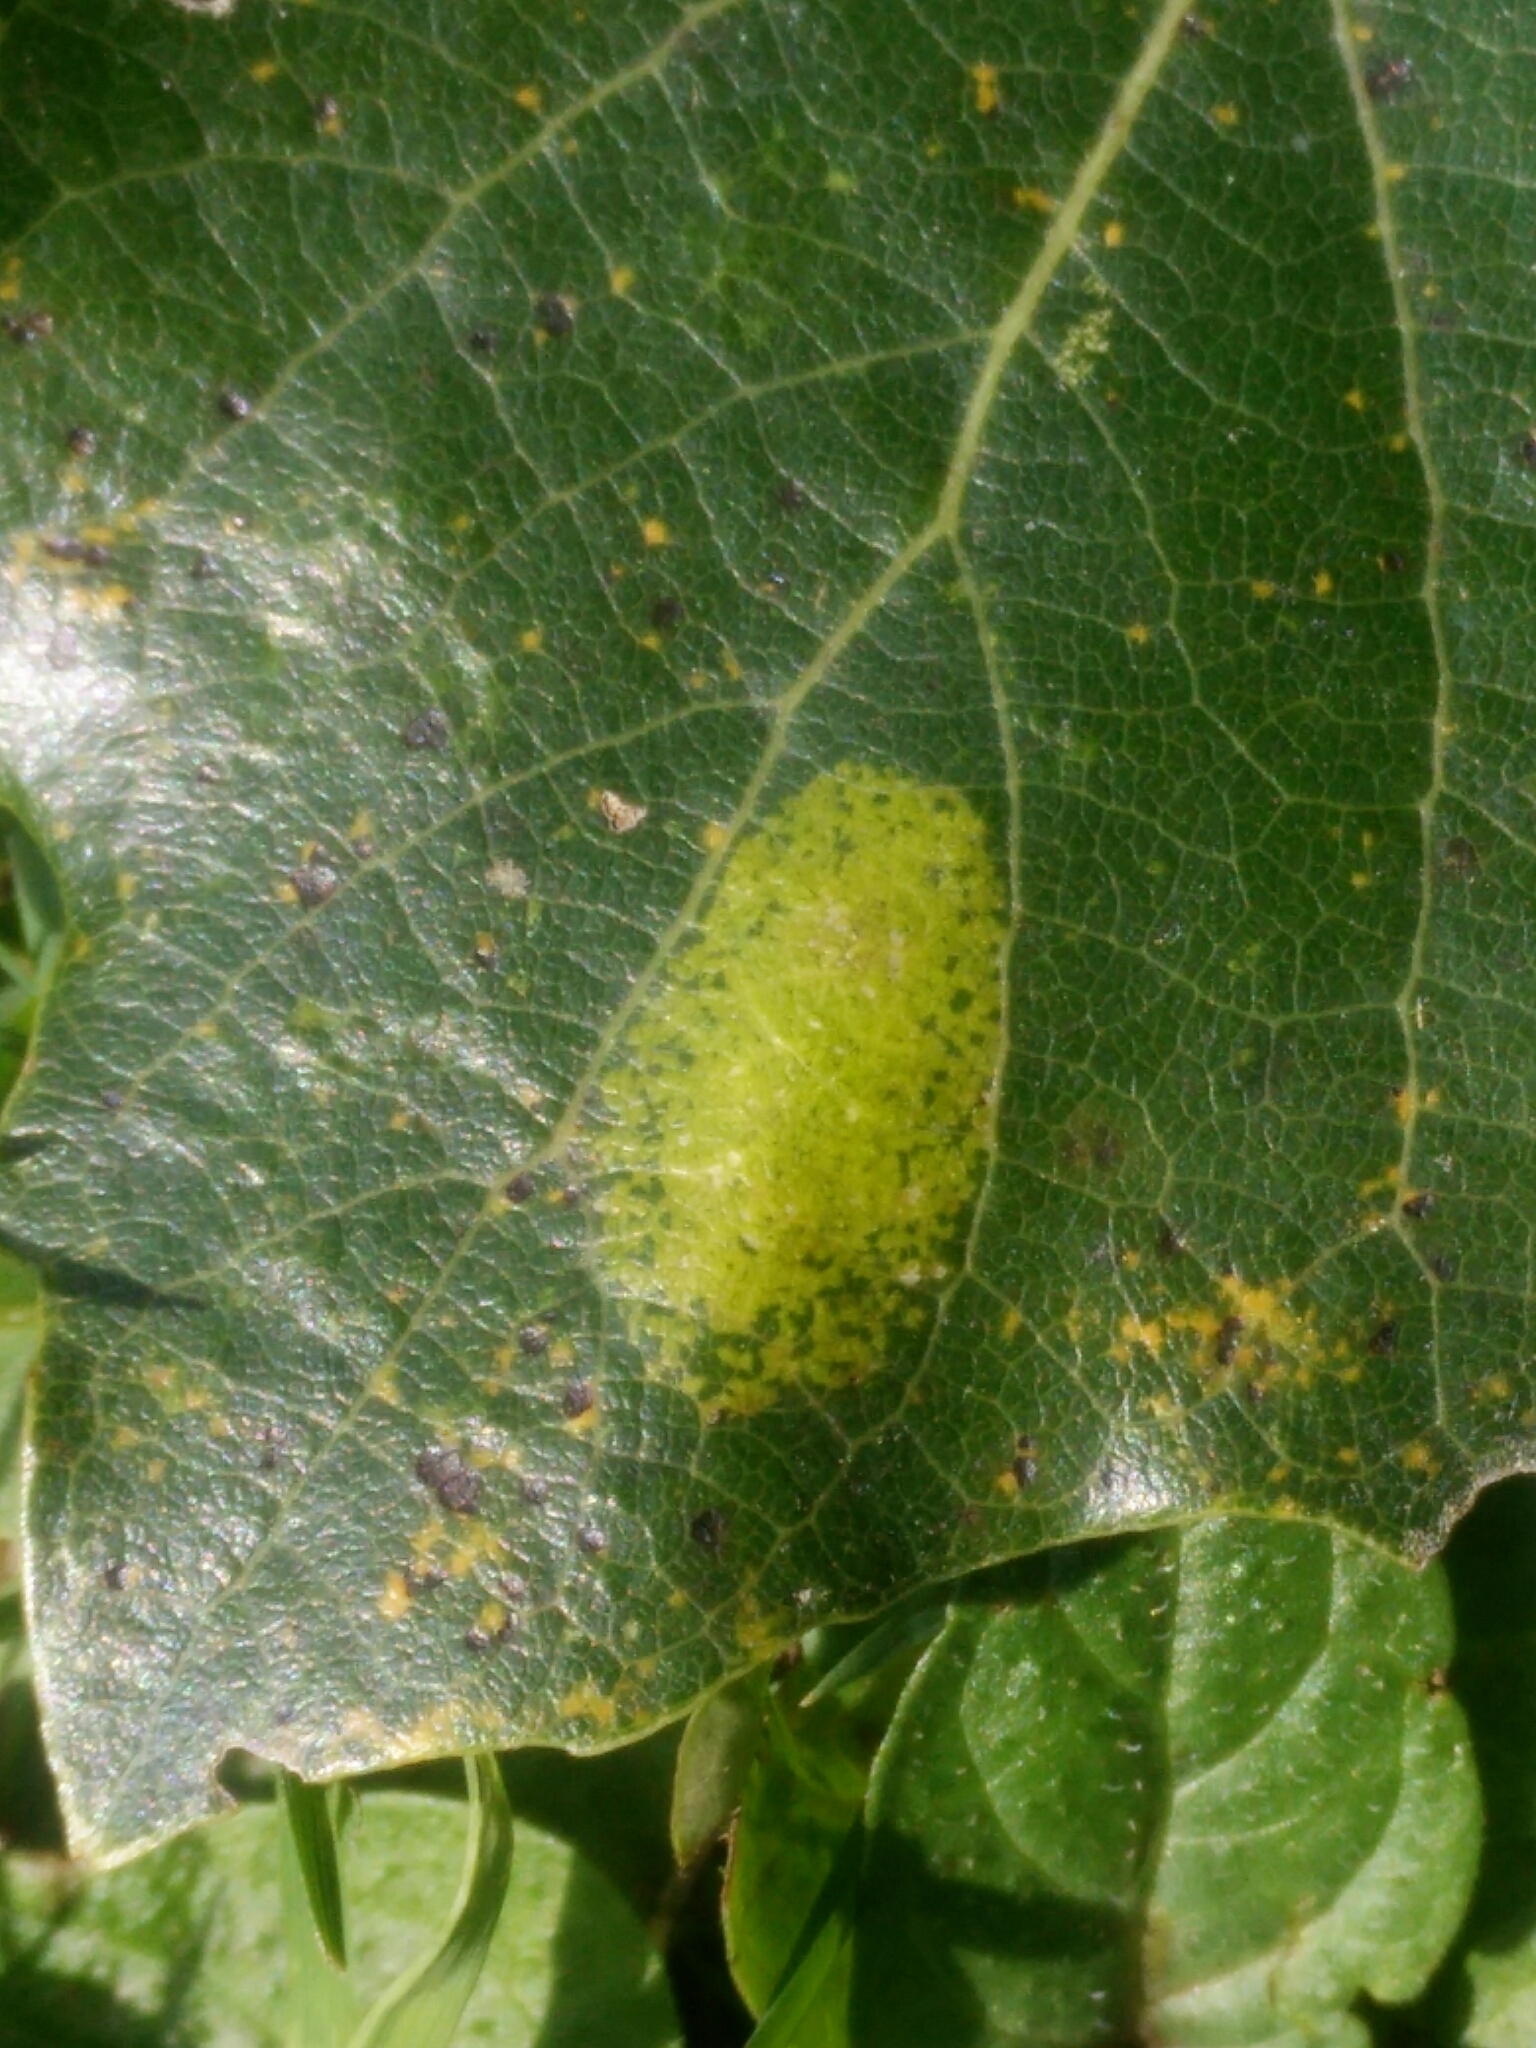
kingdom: Animalia
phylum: Arthropoda
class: Insecta
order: Lepidoptera
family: Gracillariidae
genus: Phyllonorycter
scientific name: Phyllonorycter sagitella
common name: Scarce aspen midget
